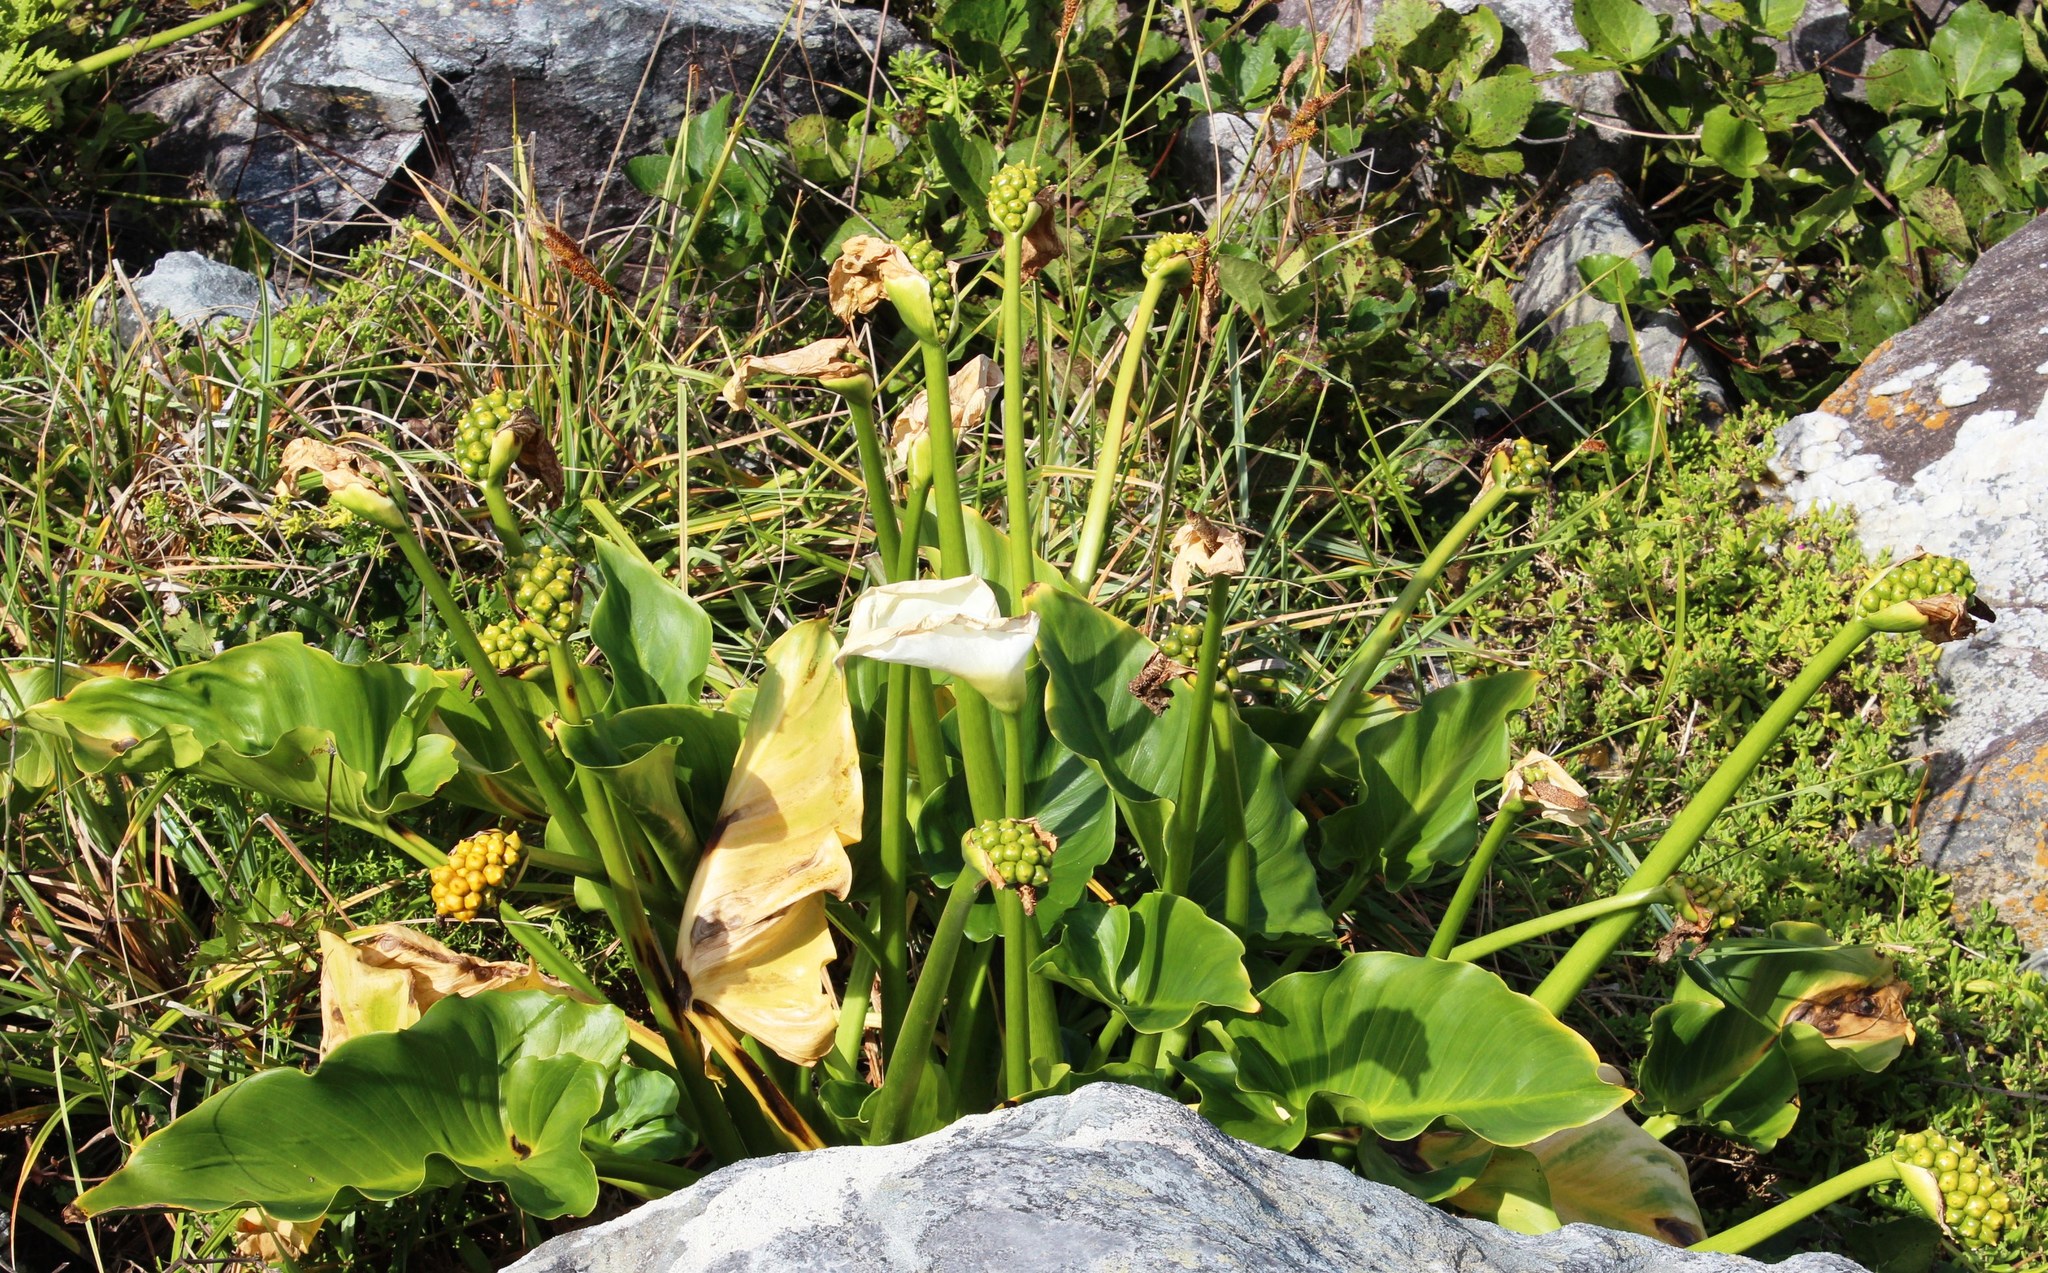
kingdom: Plantae
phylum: Tracheophyta
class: Liliopsida
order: Alismatales
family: Araceae
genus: Zantedeschia
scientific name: Zantedeschia aethiopica
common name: Altar-lily
